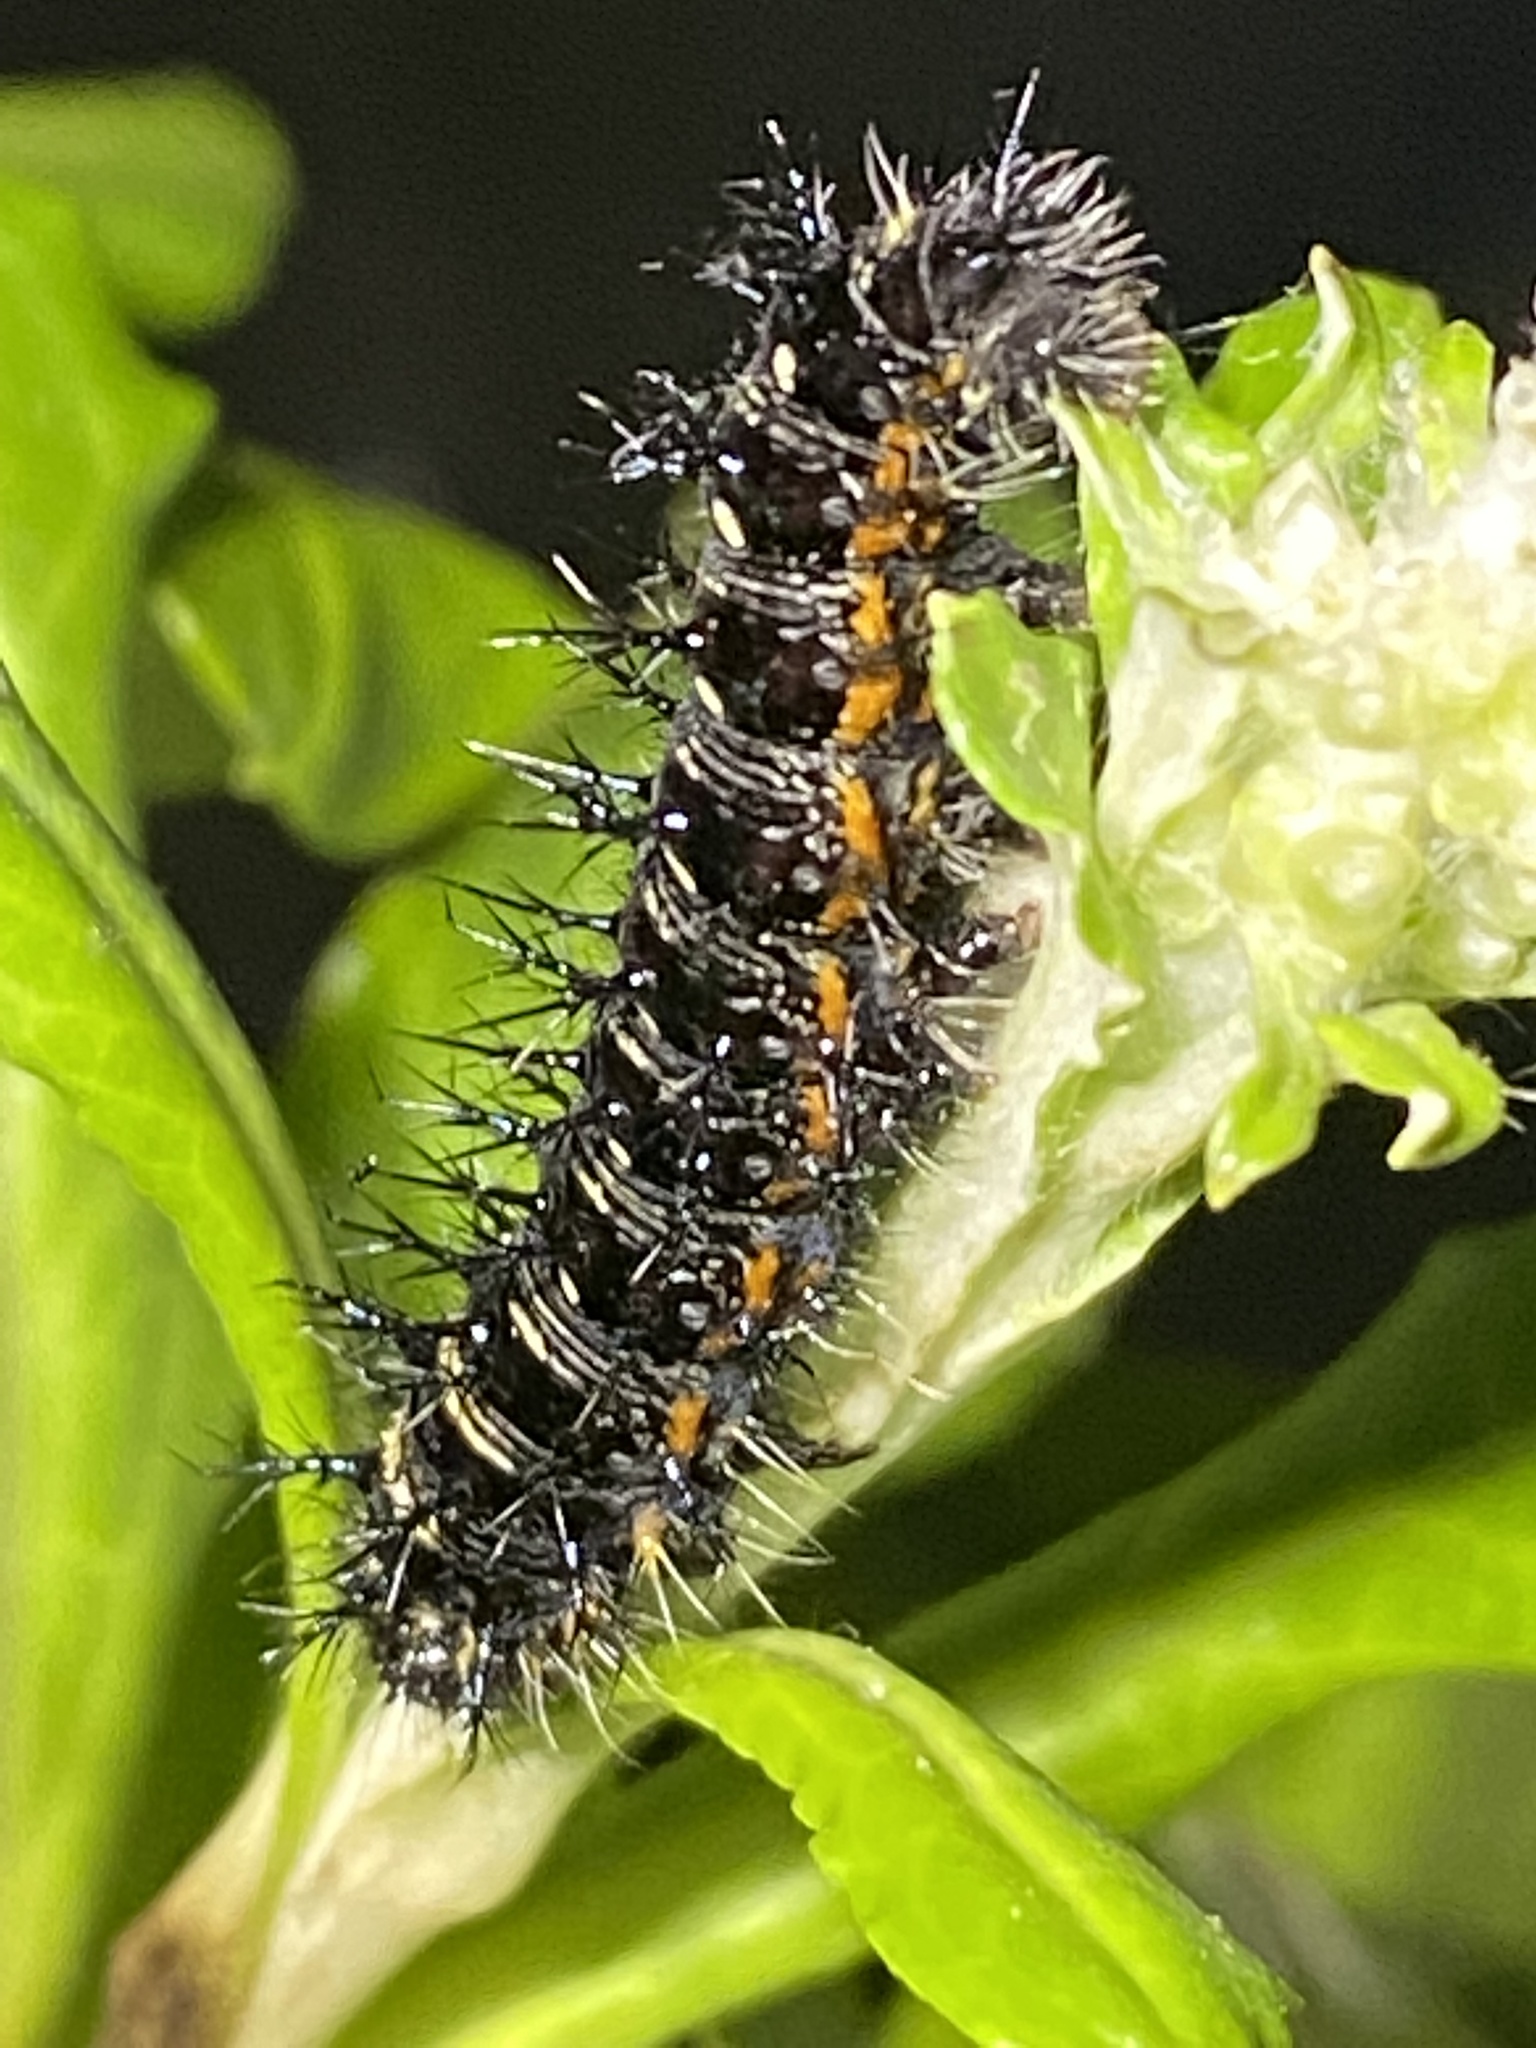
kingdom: Animalia
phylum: Arthropoda
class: Insecta
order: Lepidoptera
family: Nymphalidae
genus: Vanessa
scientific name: Vanessa virginiensis
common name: American lady
